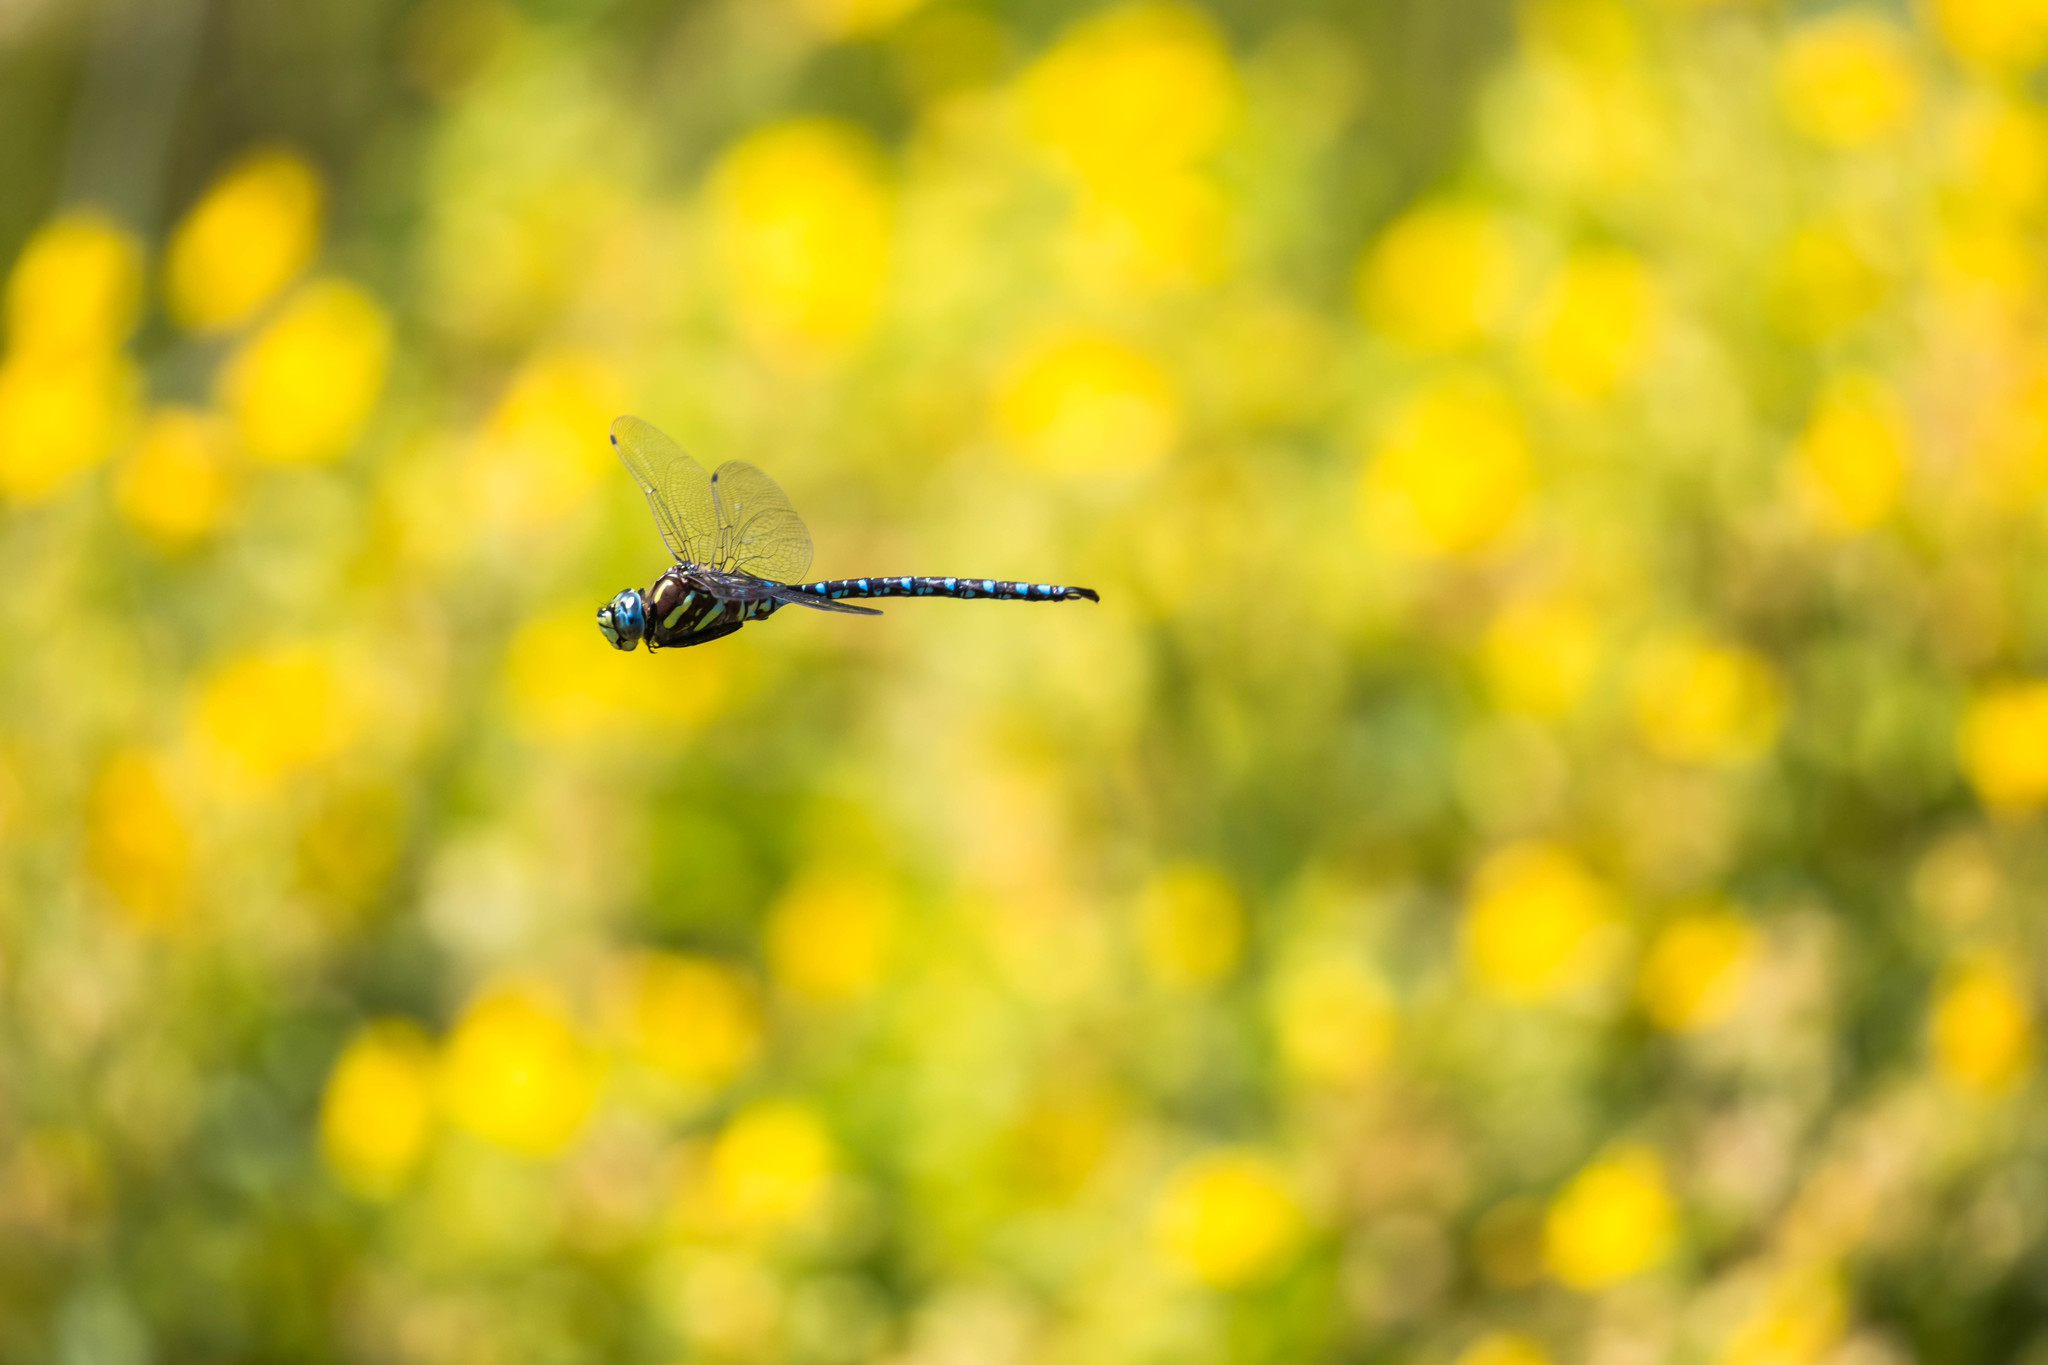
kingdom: Animalia
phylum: Arthropoda
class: Insecta
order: Odonata
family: Aeshnidae
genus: Aeshna
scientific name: Aeshna palmata
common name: Paddle-tailed darner
